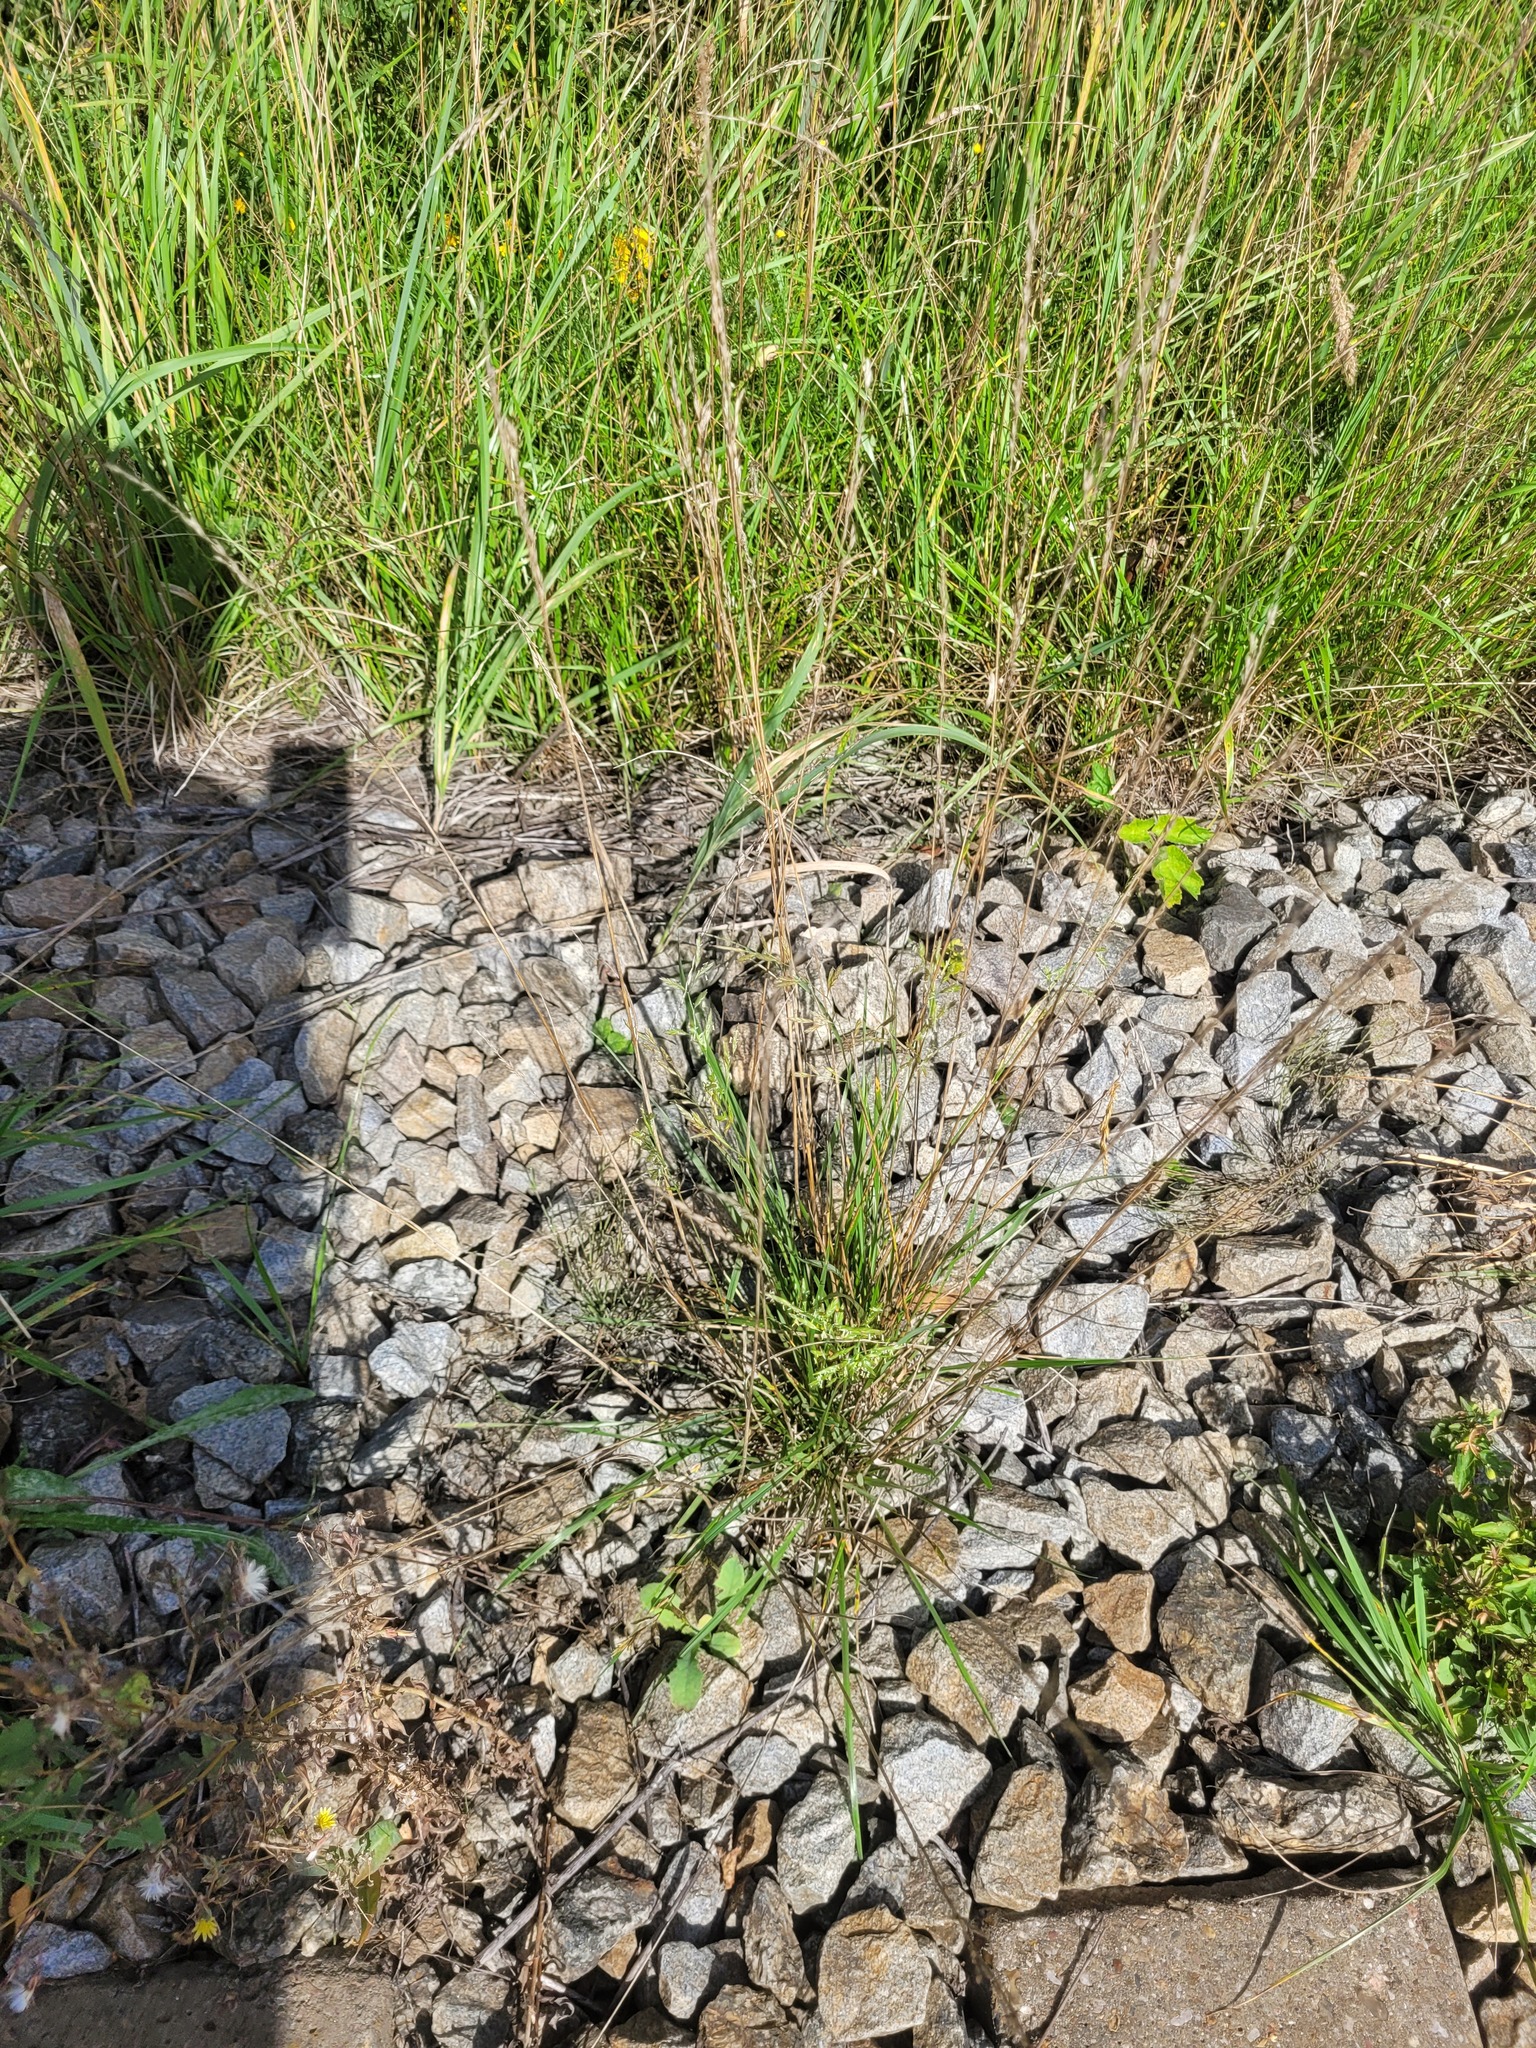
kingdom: Plantae
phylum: Tracheophyta
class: Liliopsida
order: Poales
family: Poaceae
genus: Lolium
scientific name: Lolium pratense
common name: Dover grass
